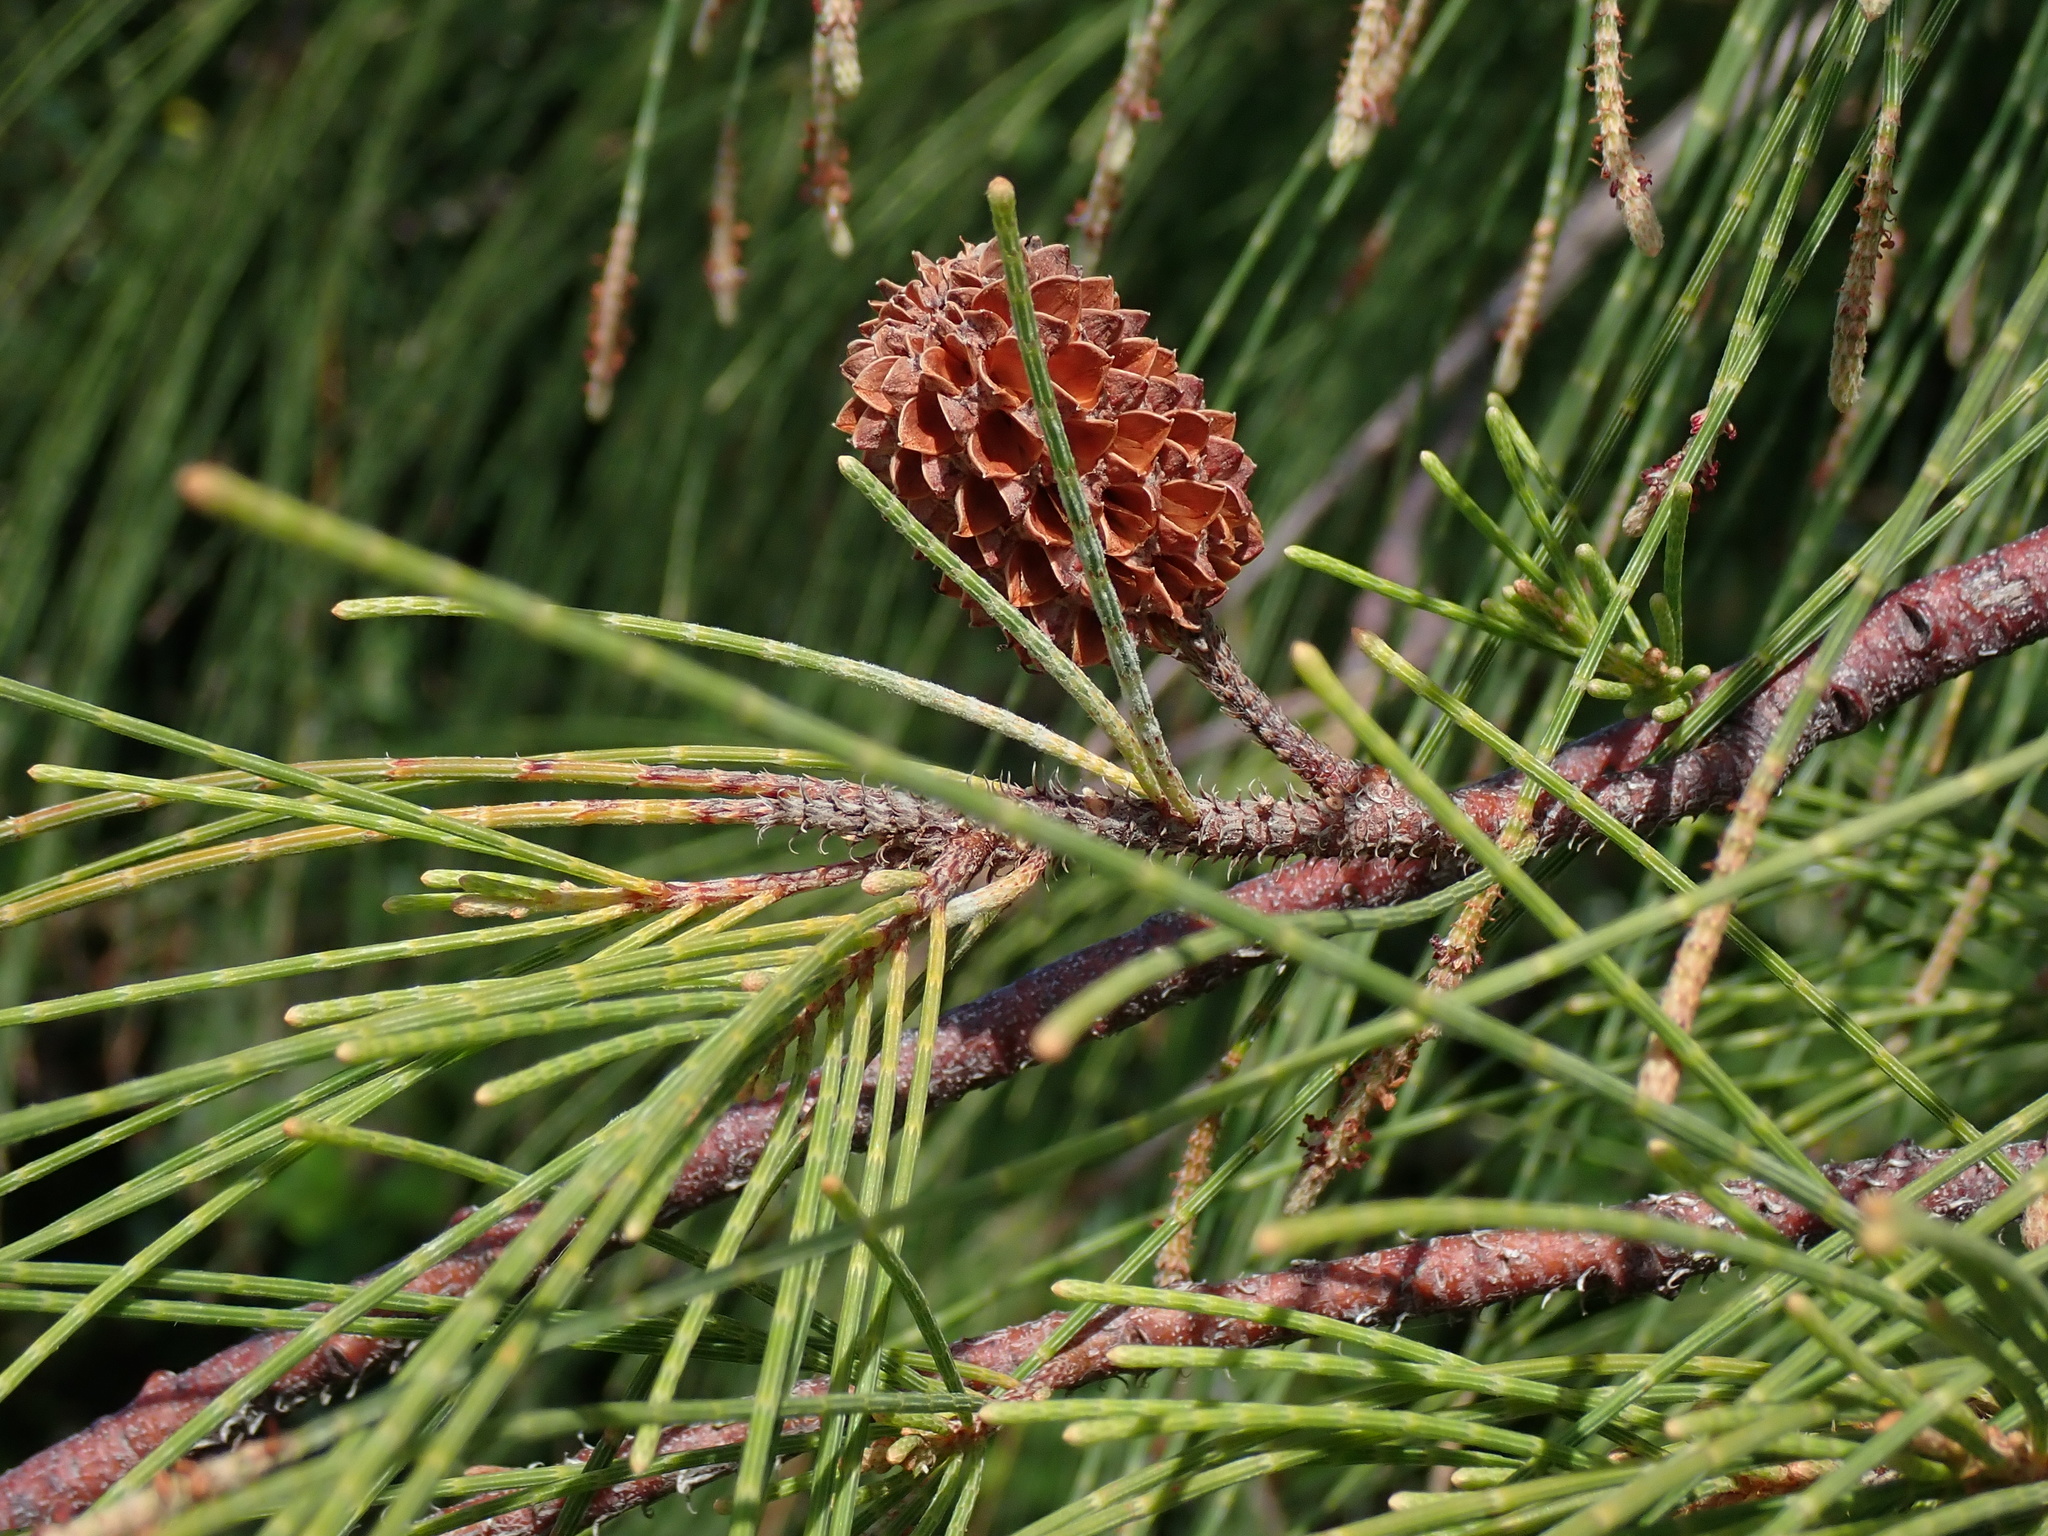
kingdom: Plantae
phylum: Tracheophyta
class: Magnoliopsida
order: Fagales
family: Casuarinaceae
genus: Casuarina
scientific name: Casuarina equisetifolia
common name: Beach sheoak
